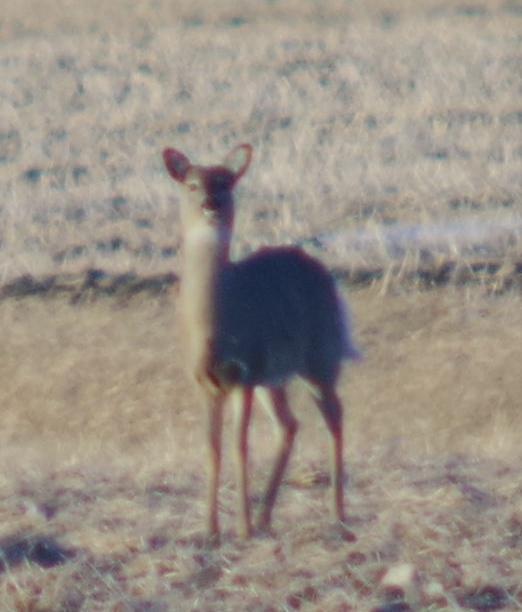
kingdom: Animalia
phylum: Chordata
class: Mammalia
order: Artiodactyla
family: Cervidae
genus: Odocoileus
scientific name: Odocoileus virginianus
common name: White-tailed deer
